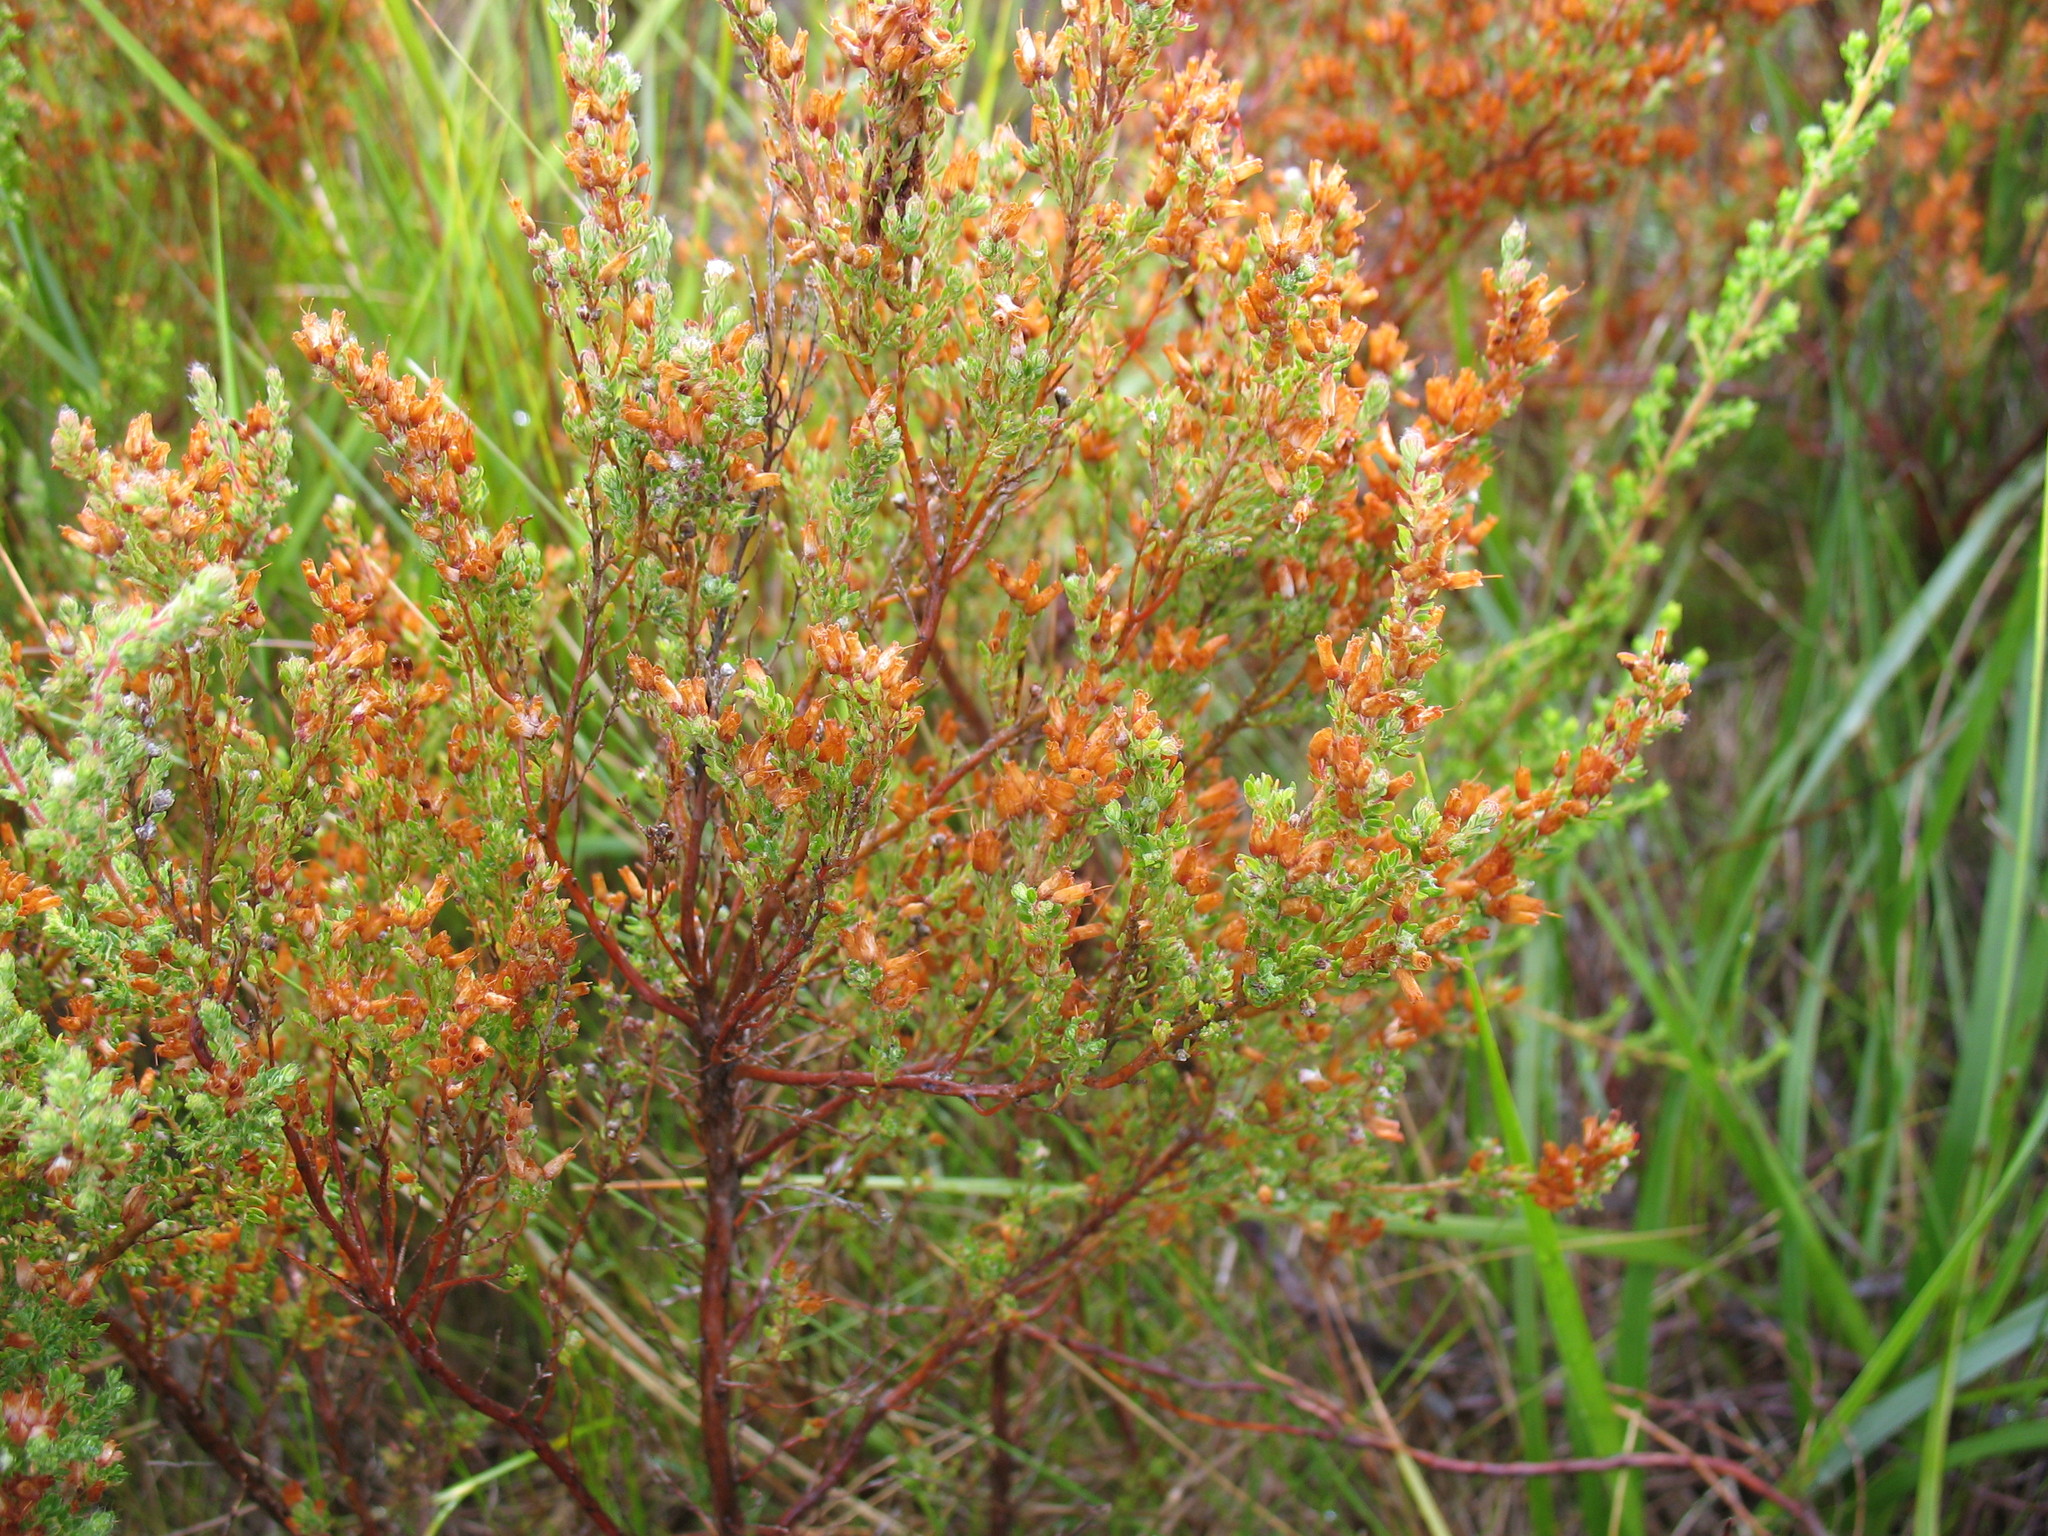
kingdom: Plantae
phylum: Tracheophyta
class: Magnoliopsida
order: Ericales
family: Ericaceae
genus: Erica
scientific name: Erica longimontana
